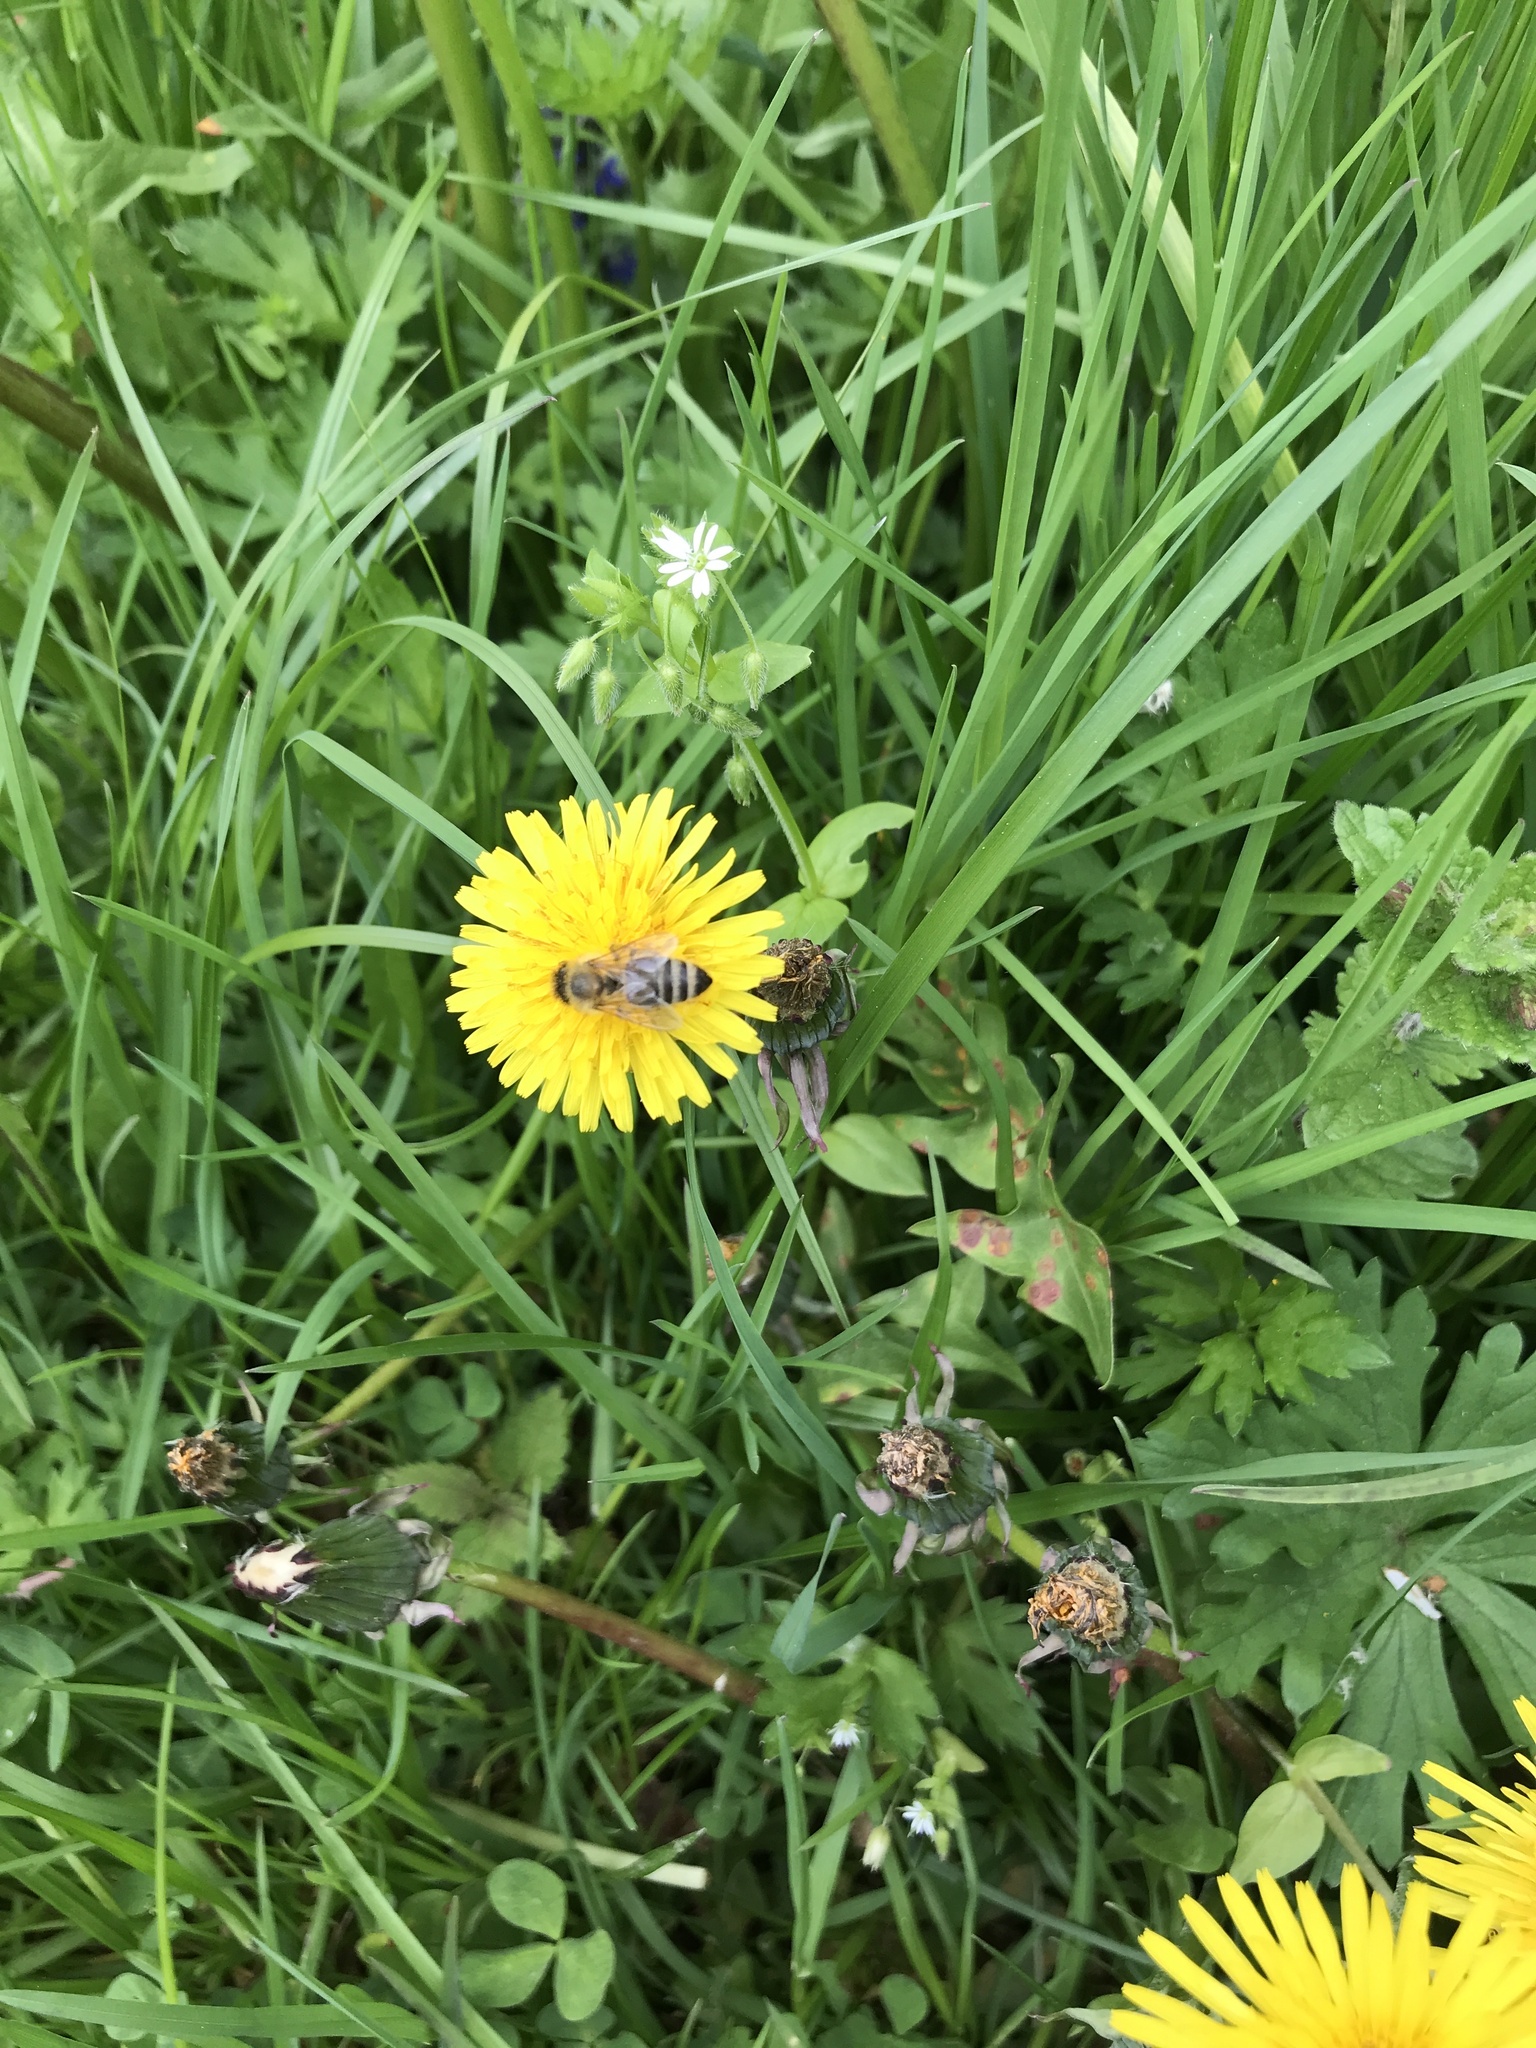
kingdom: Animalia
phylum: Arthropoda
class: Insecta
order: Hymenoptera
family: Apidae
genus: Apis
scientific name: Apis mellifera
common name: Honey bee
